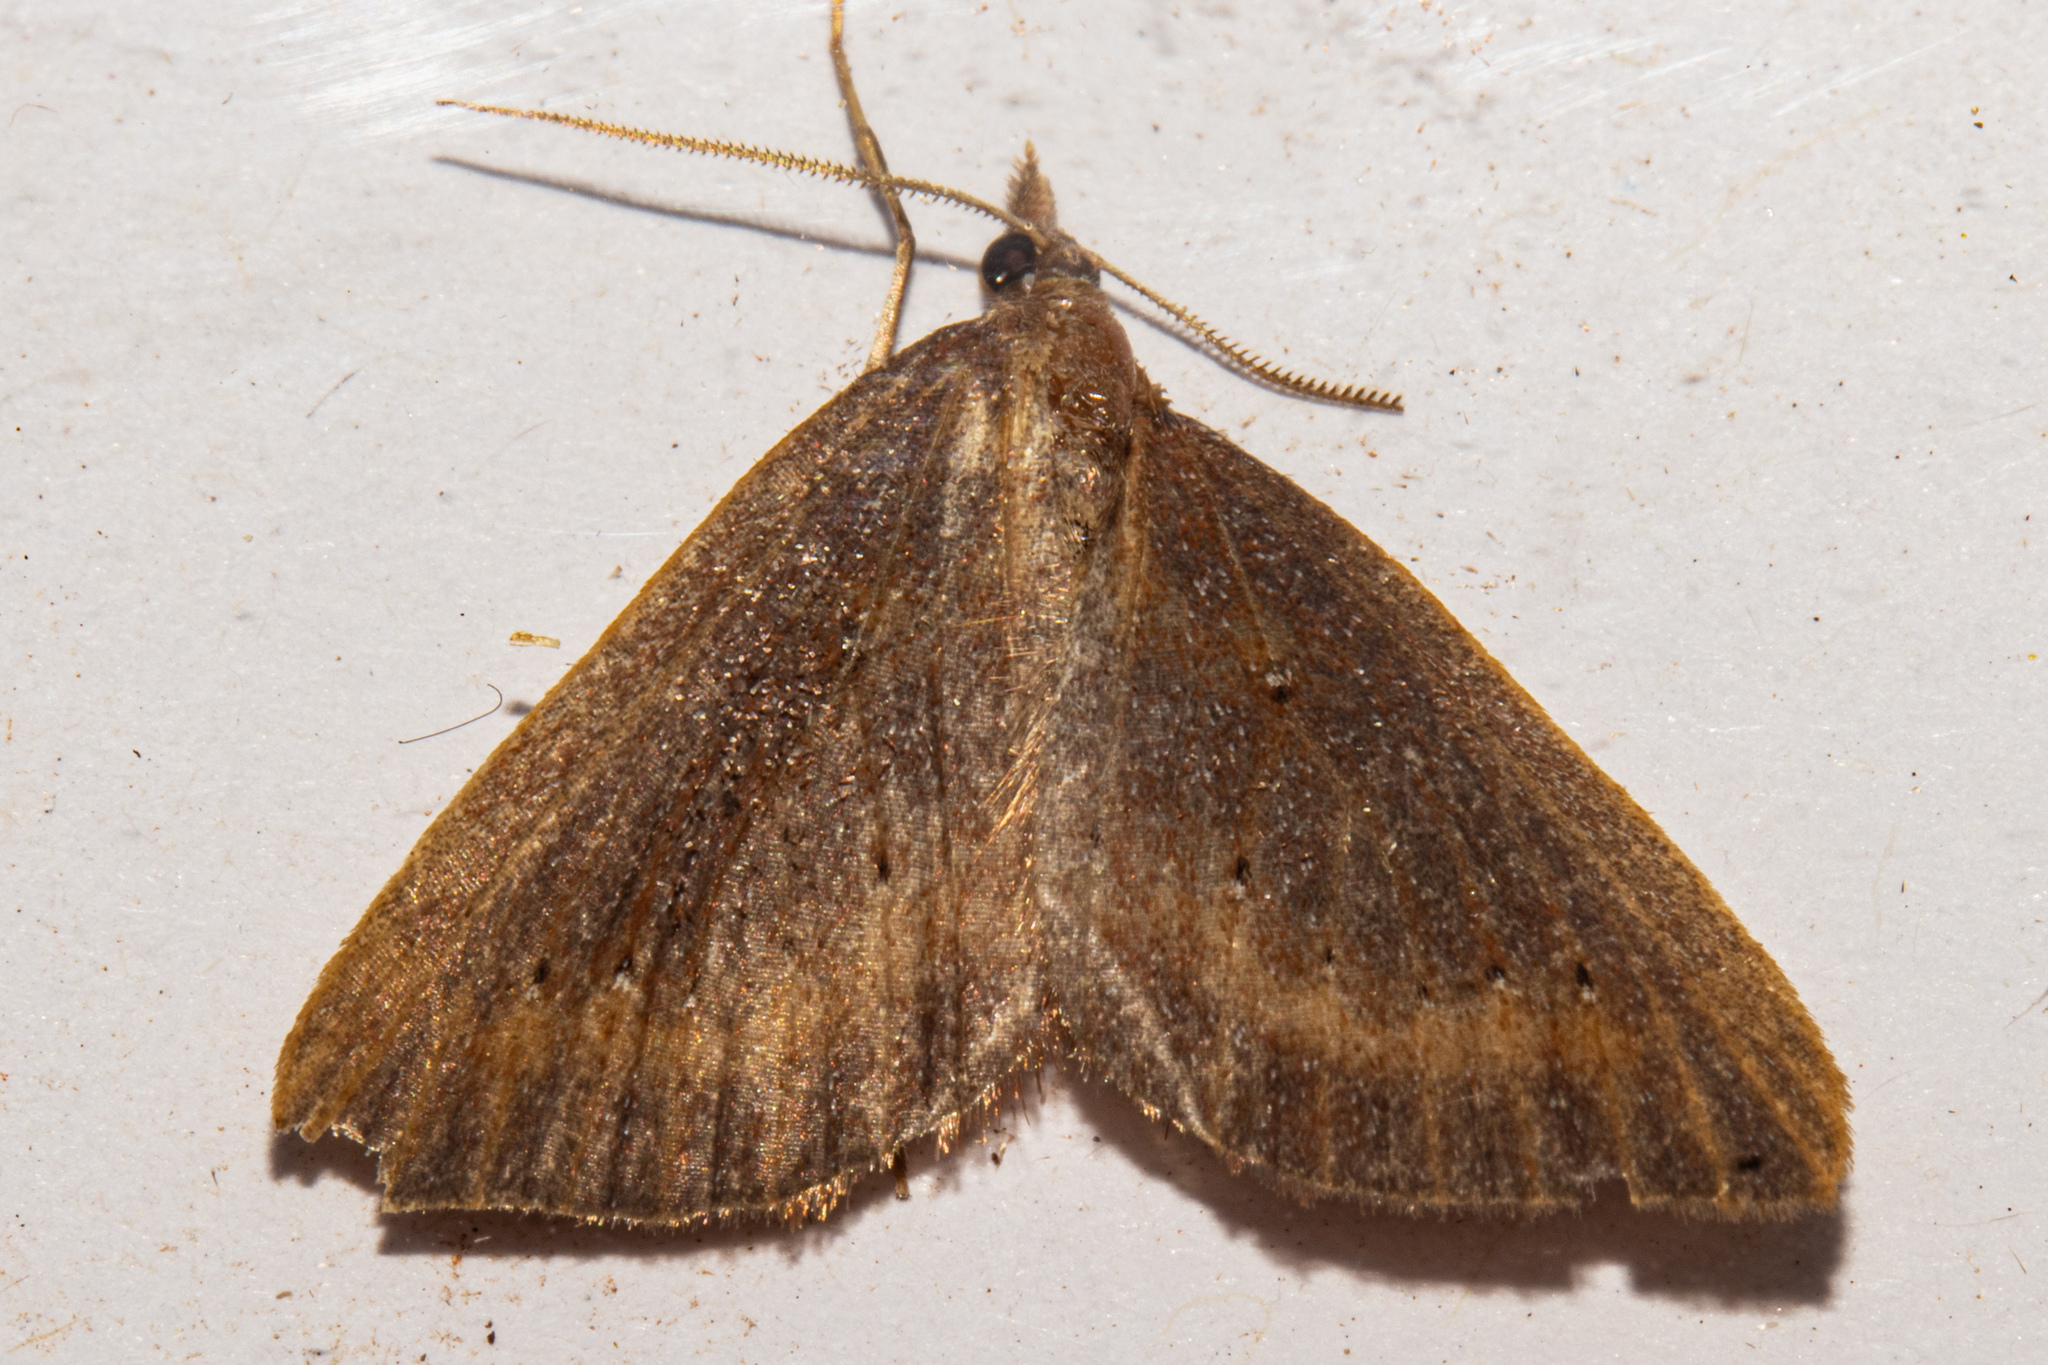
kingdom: Animalia
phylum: Arthropoda
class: Insecta
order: Lepidoptera
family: Geometridae
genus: Xanthorhoe
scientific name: Xanthorhoe occulta
